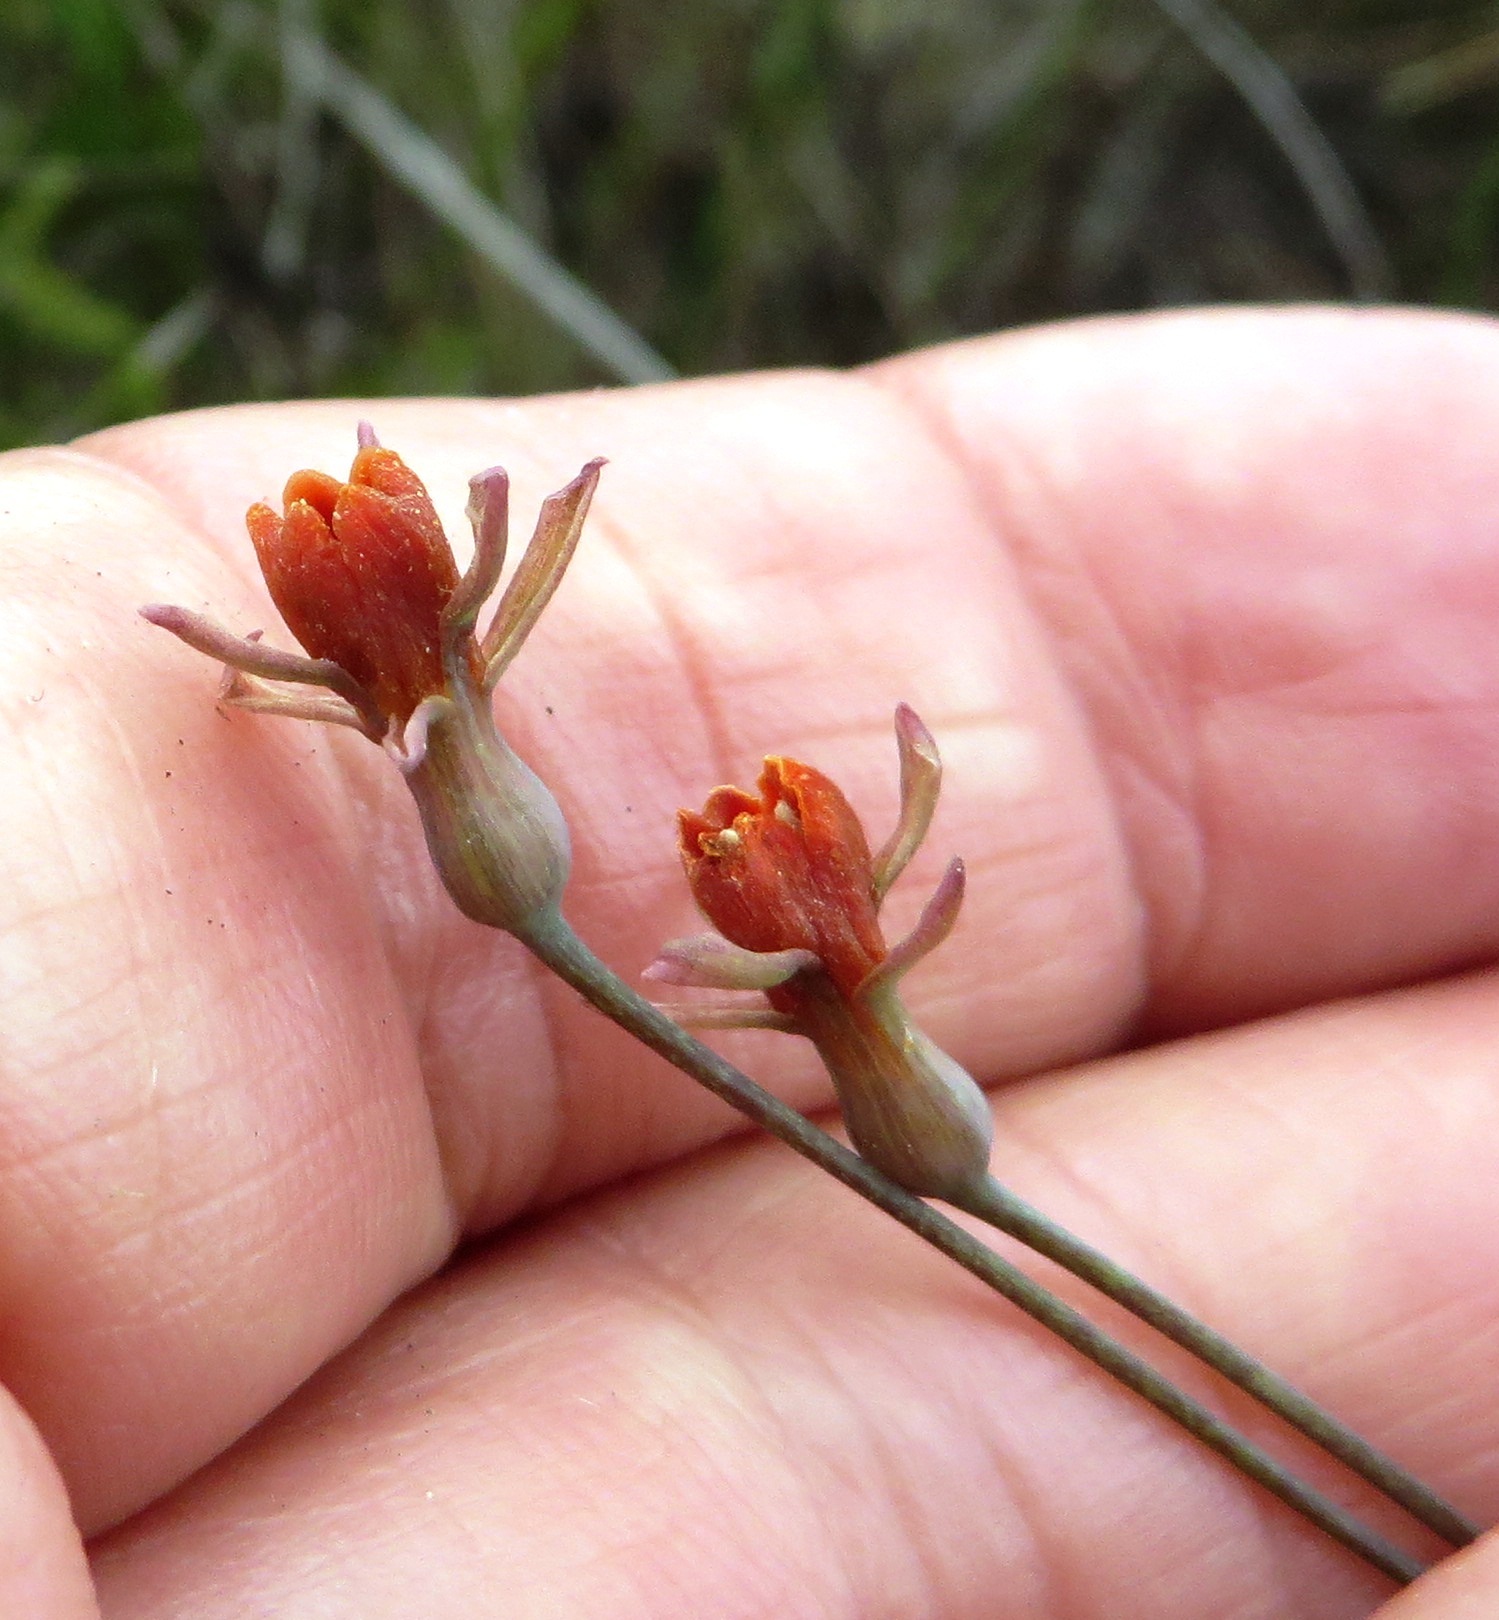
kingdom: Plantae
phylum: Tracheophyta
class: Liliopsida
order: Asparagales
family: Amaryllidaceae
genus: Tulbaghia
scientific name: Tulbaghia capensis
